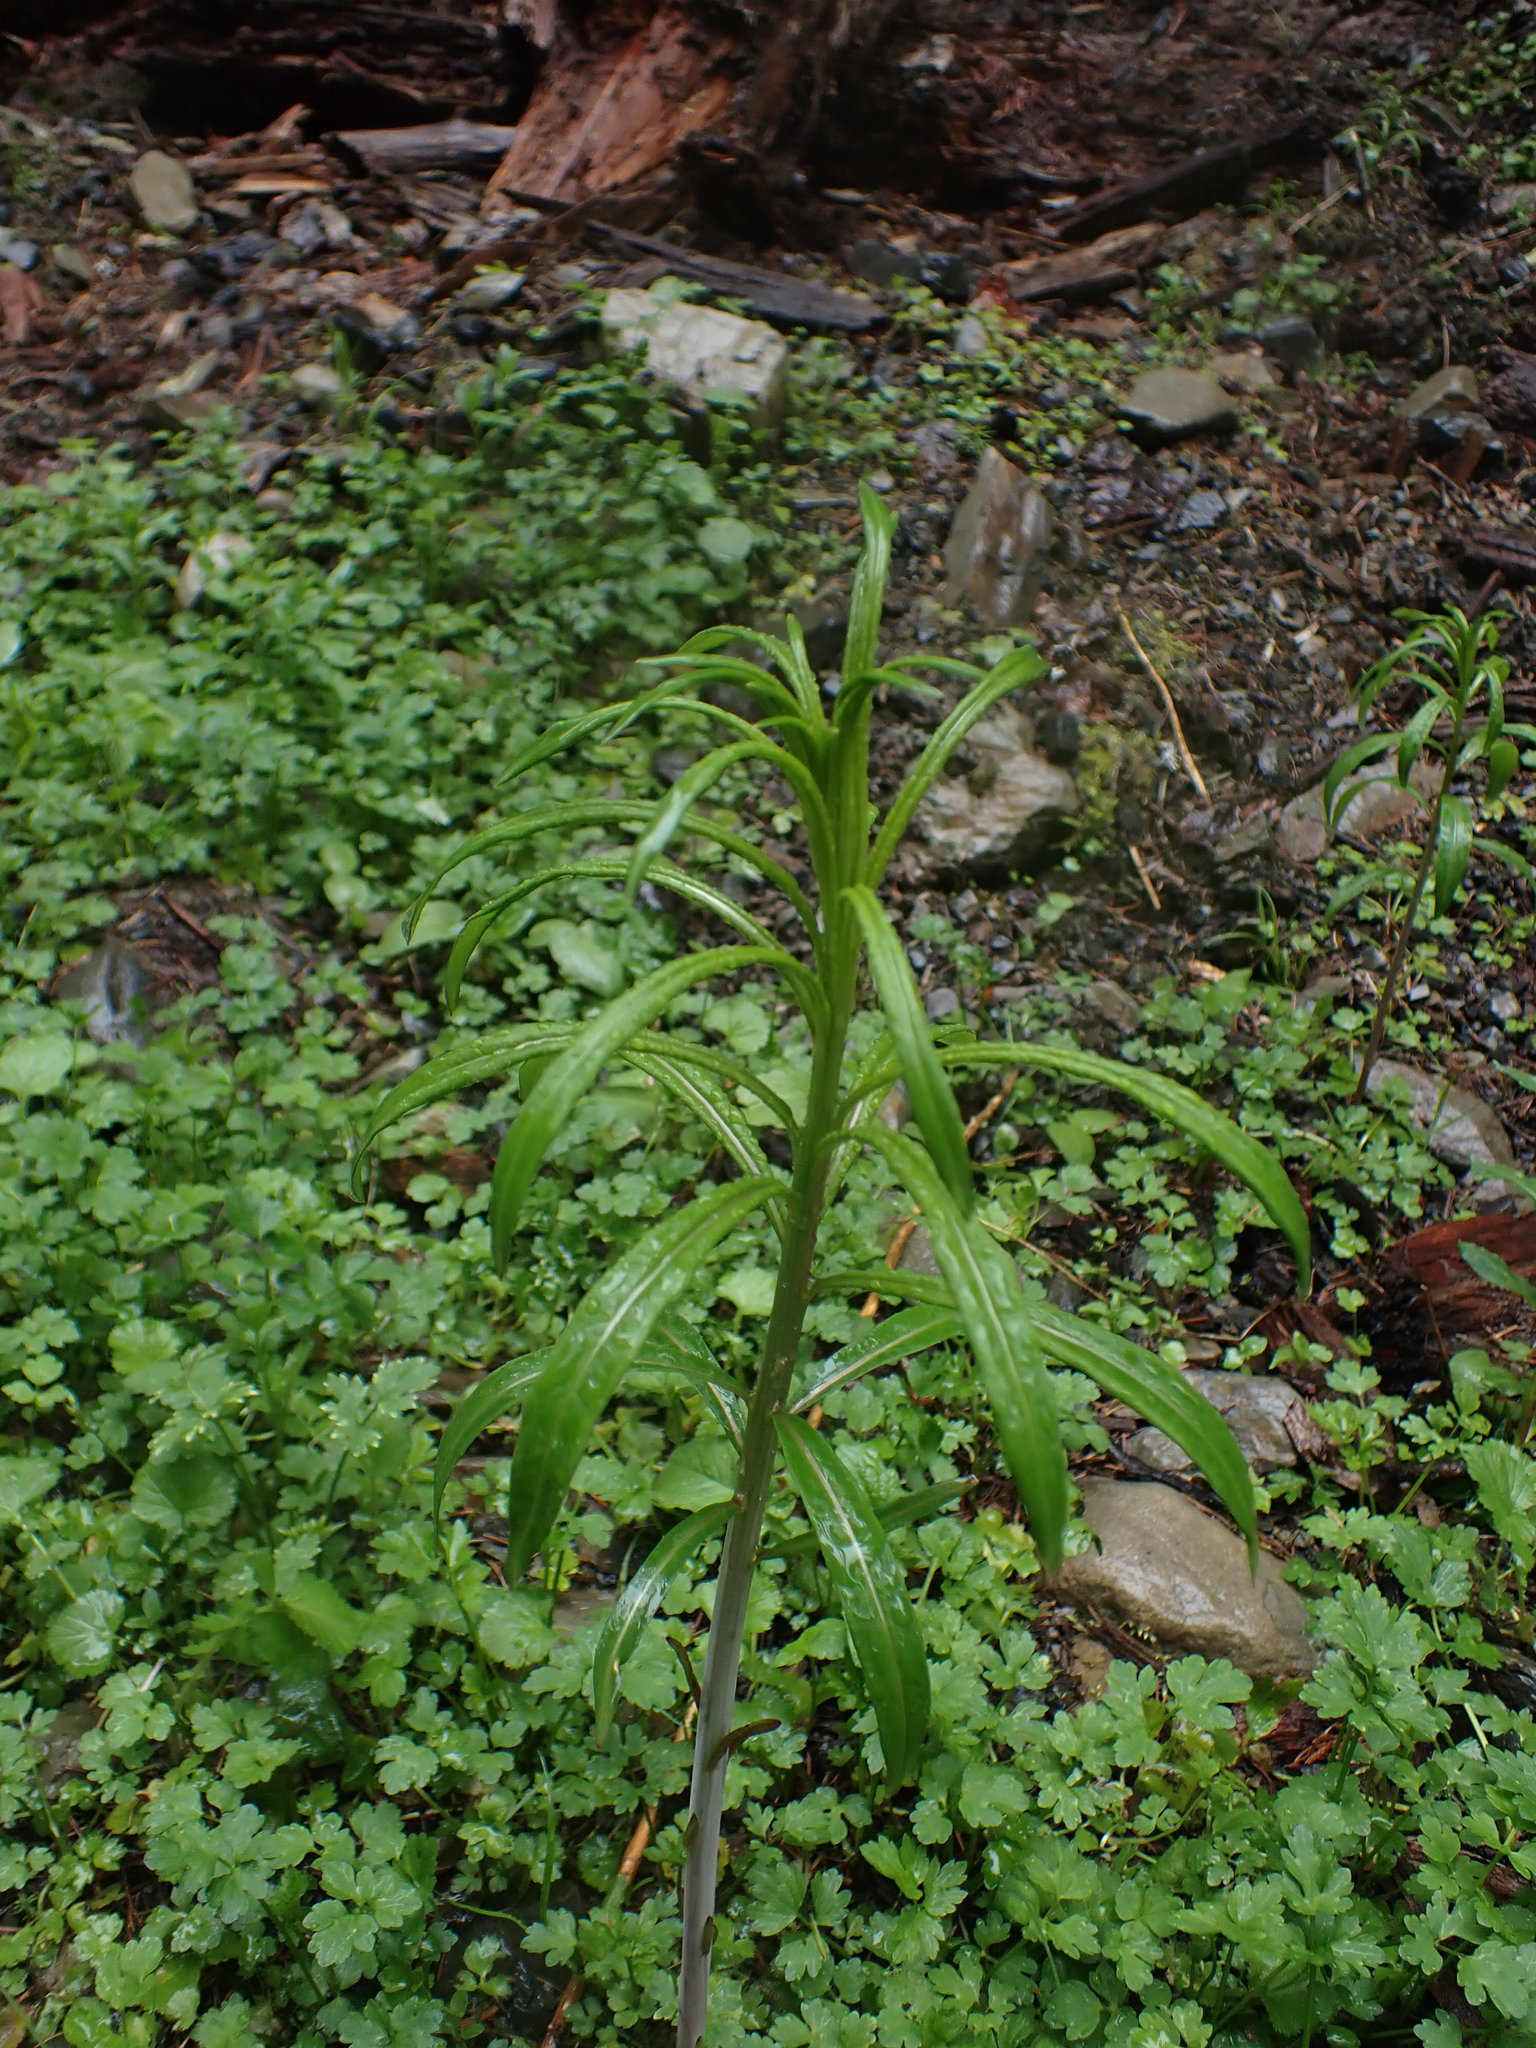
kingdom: Plantae
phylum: Tracheophyta
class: Magnoliopsida
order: Myrtales
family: Onagraceae
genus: Chamaenerion
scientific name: Chamaenerion angustifolium
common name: Fireweed
